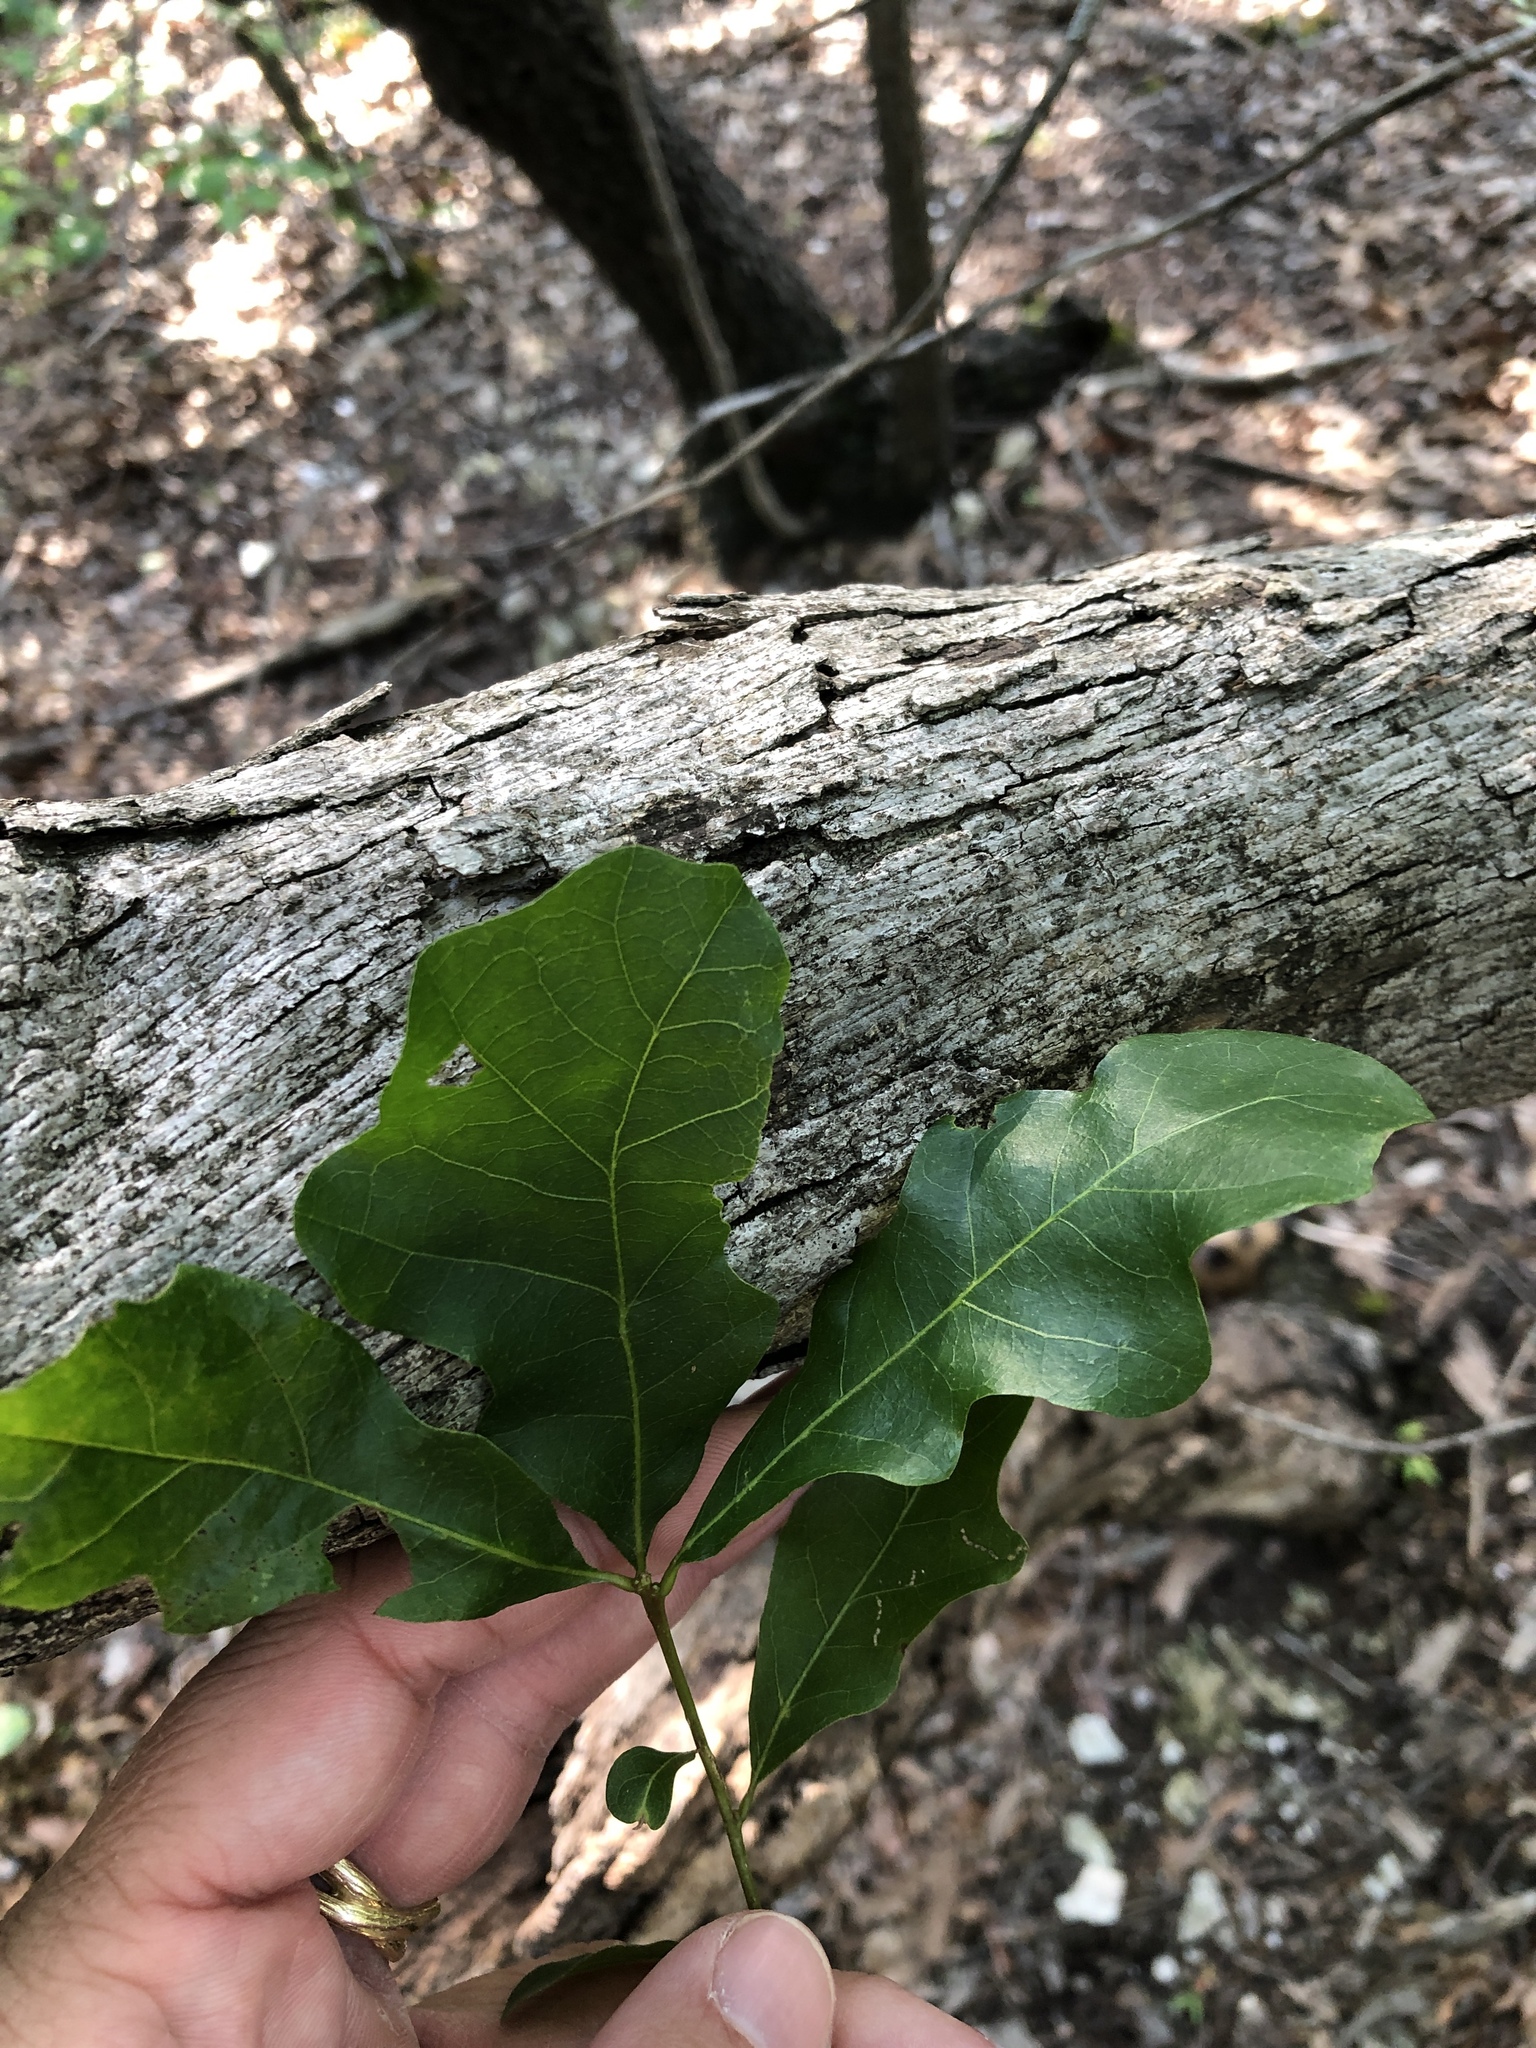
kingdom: Plantae
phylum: Tracheophyta
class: Magnoliopsida
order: Fagales
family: Fagaceae
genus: Quercus
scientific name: Quercus sinuata
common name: Durand oak
